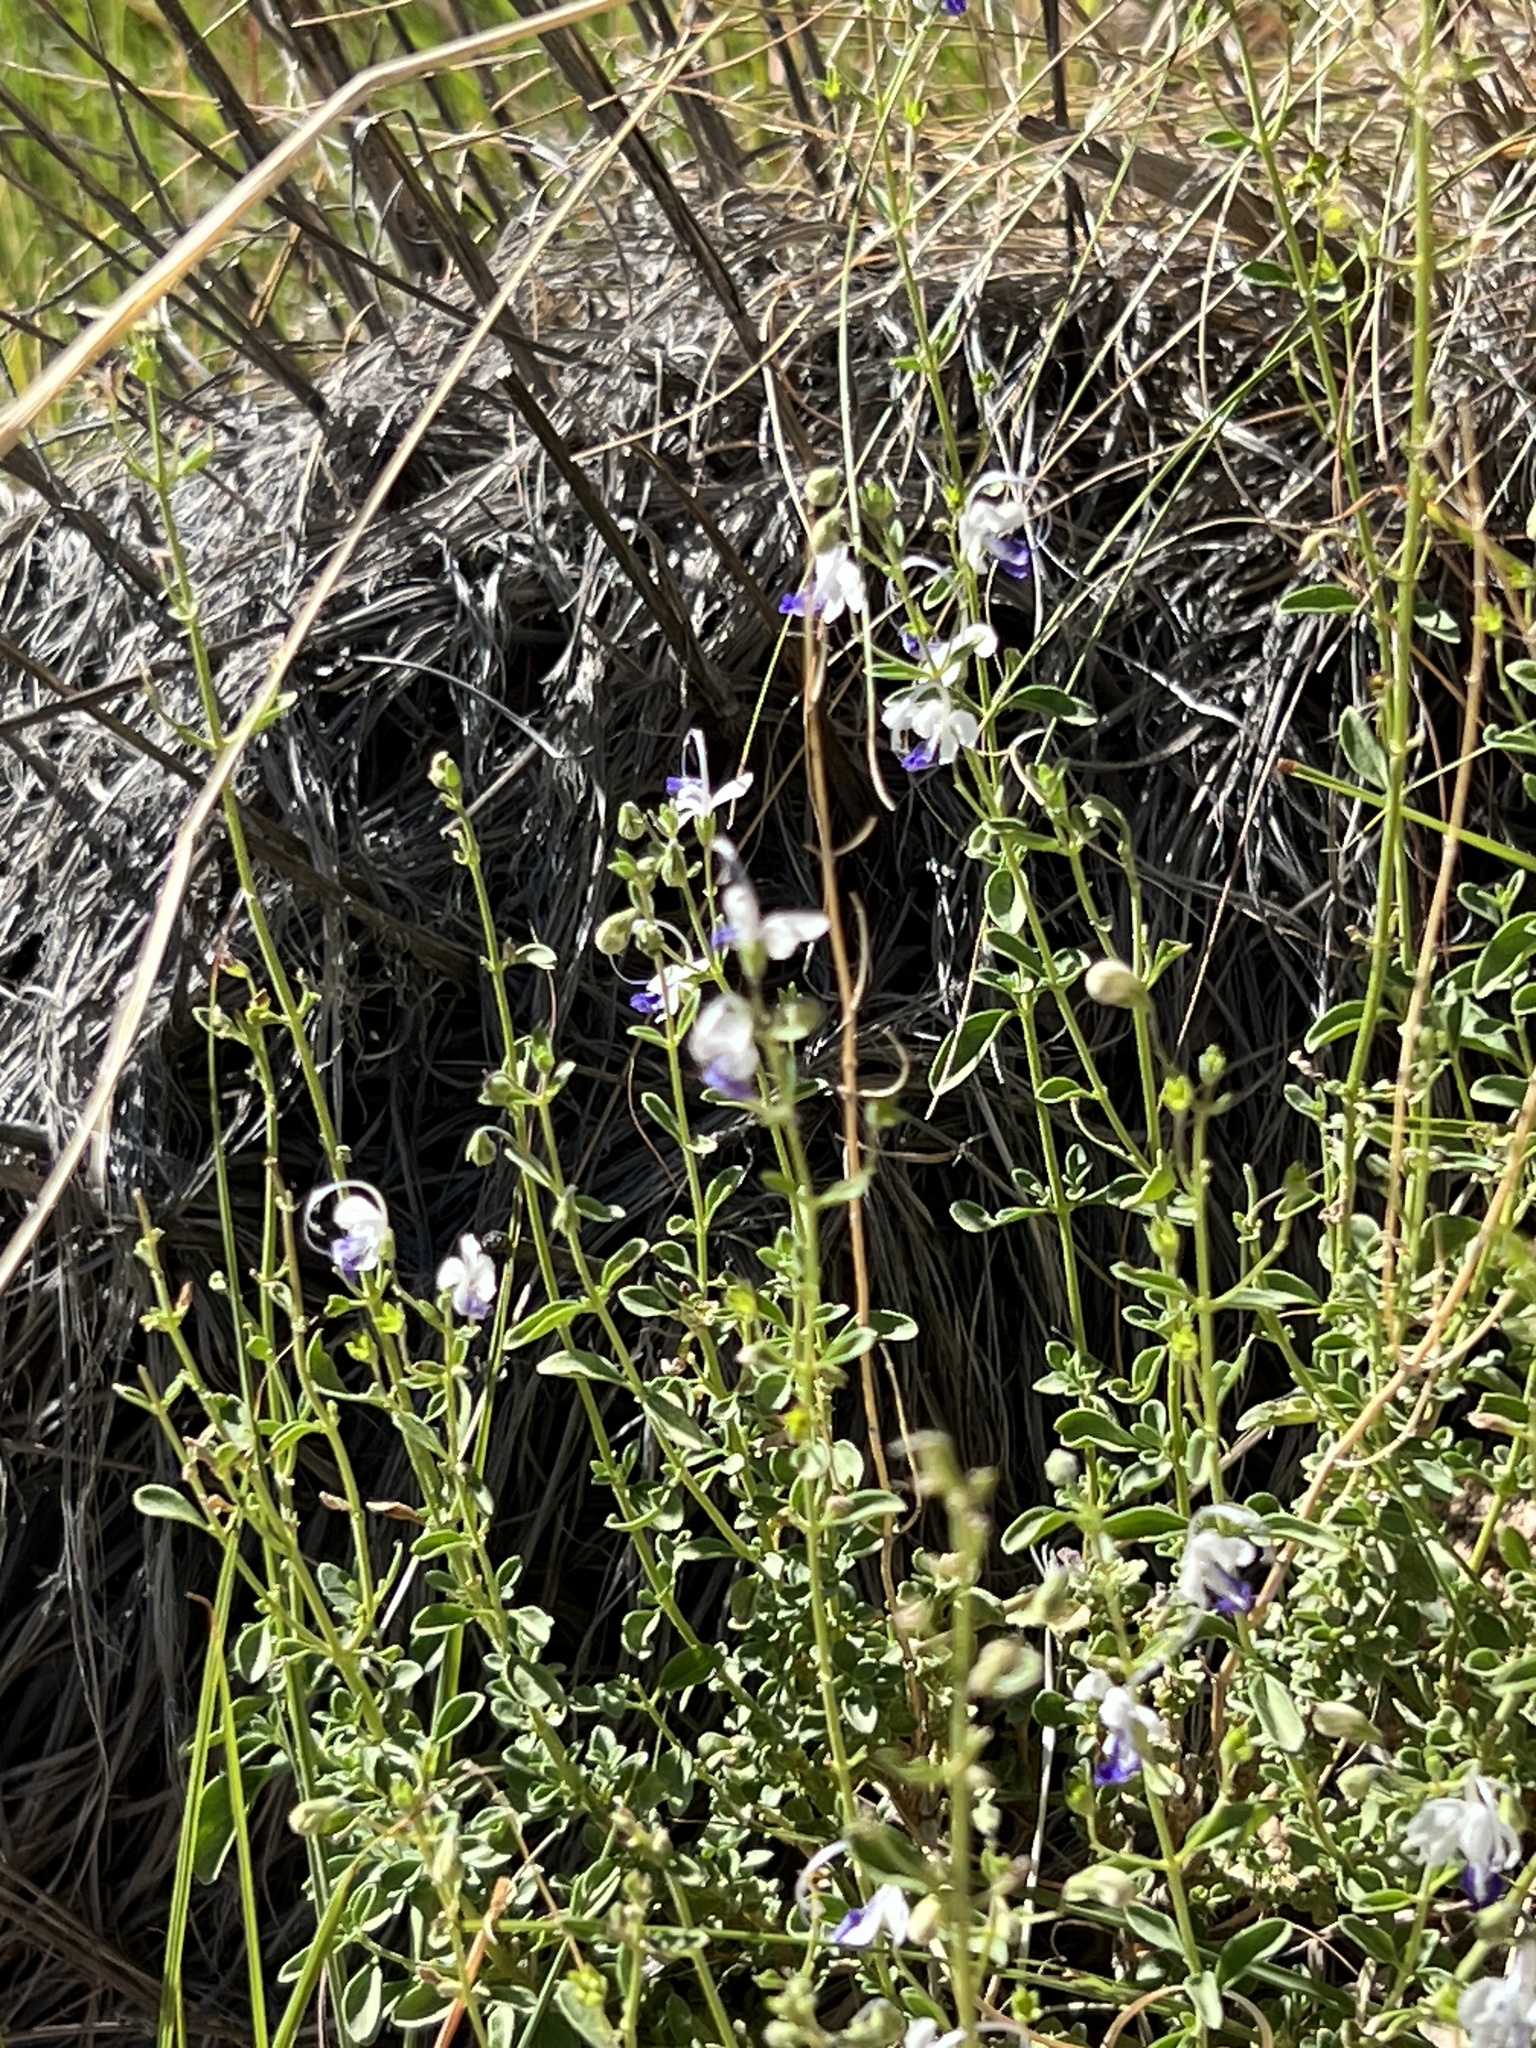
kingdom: Plantae
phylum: Tracheophyta
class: Magnoliopsida
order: Lamiales
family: Lamiaceae
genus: Trichostema
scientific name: Trichostema arizonicum
